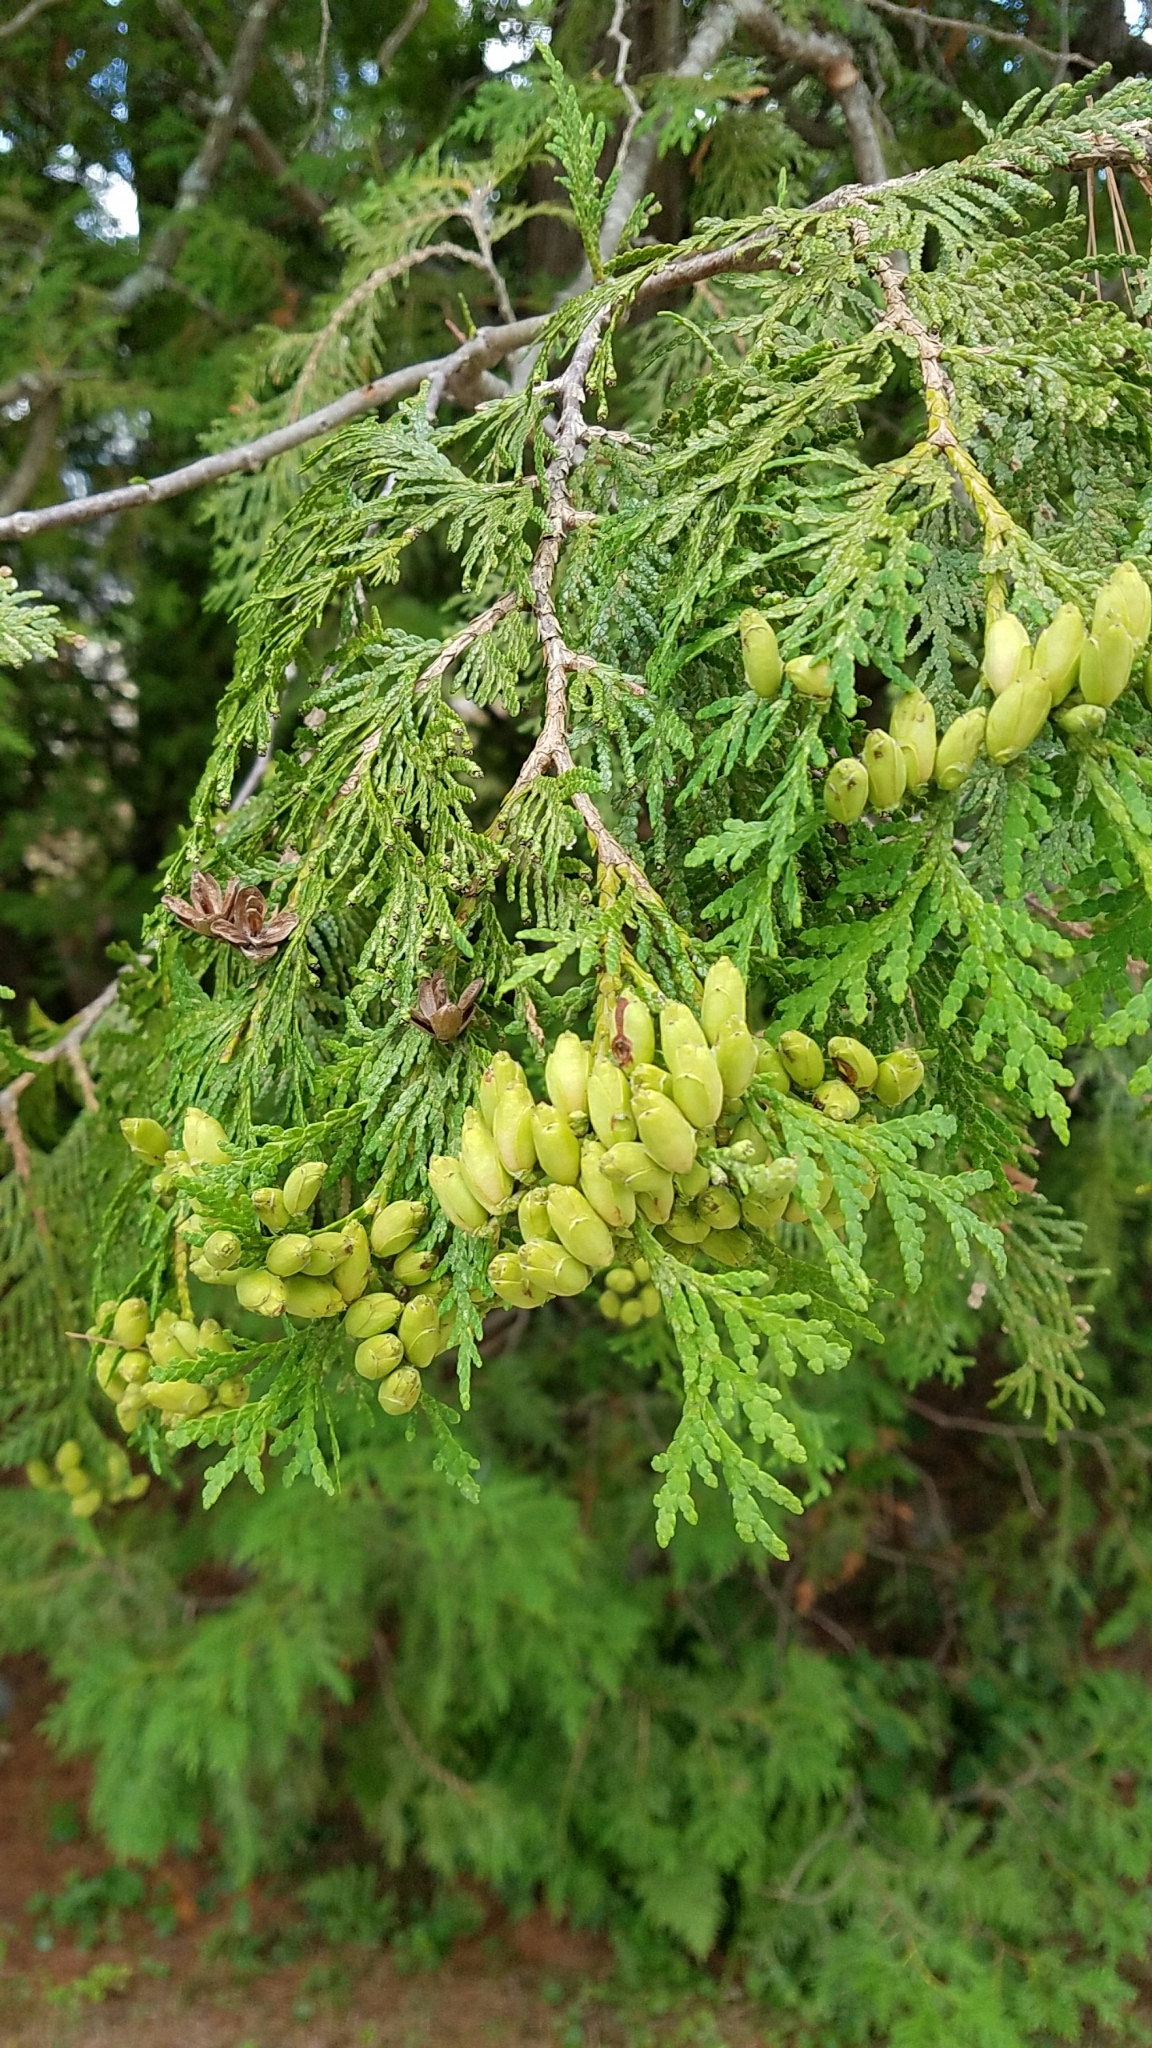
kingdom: Plantae
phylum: Tracheophyta
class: Pinopsida
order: Pinales
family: Cupressaceae
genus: Thuja
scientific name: Thuja occidentalis
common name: Northern white-cedar
